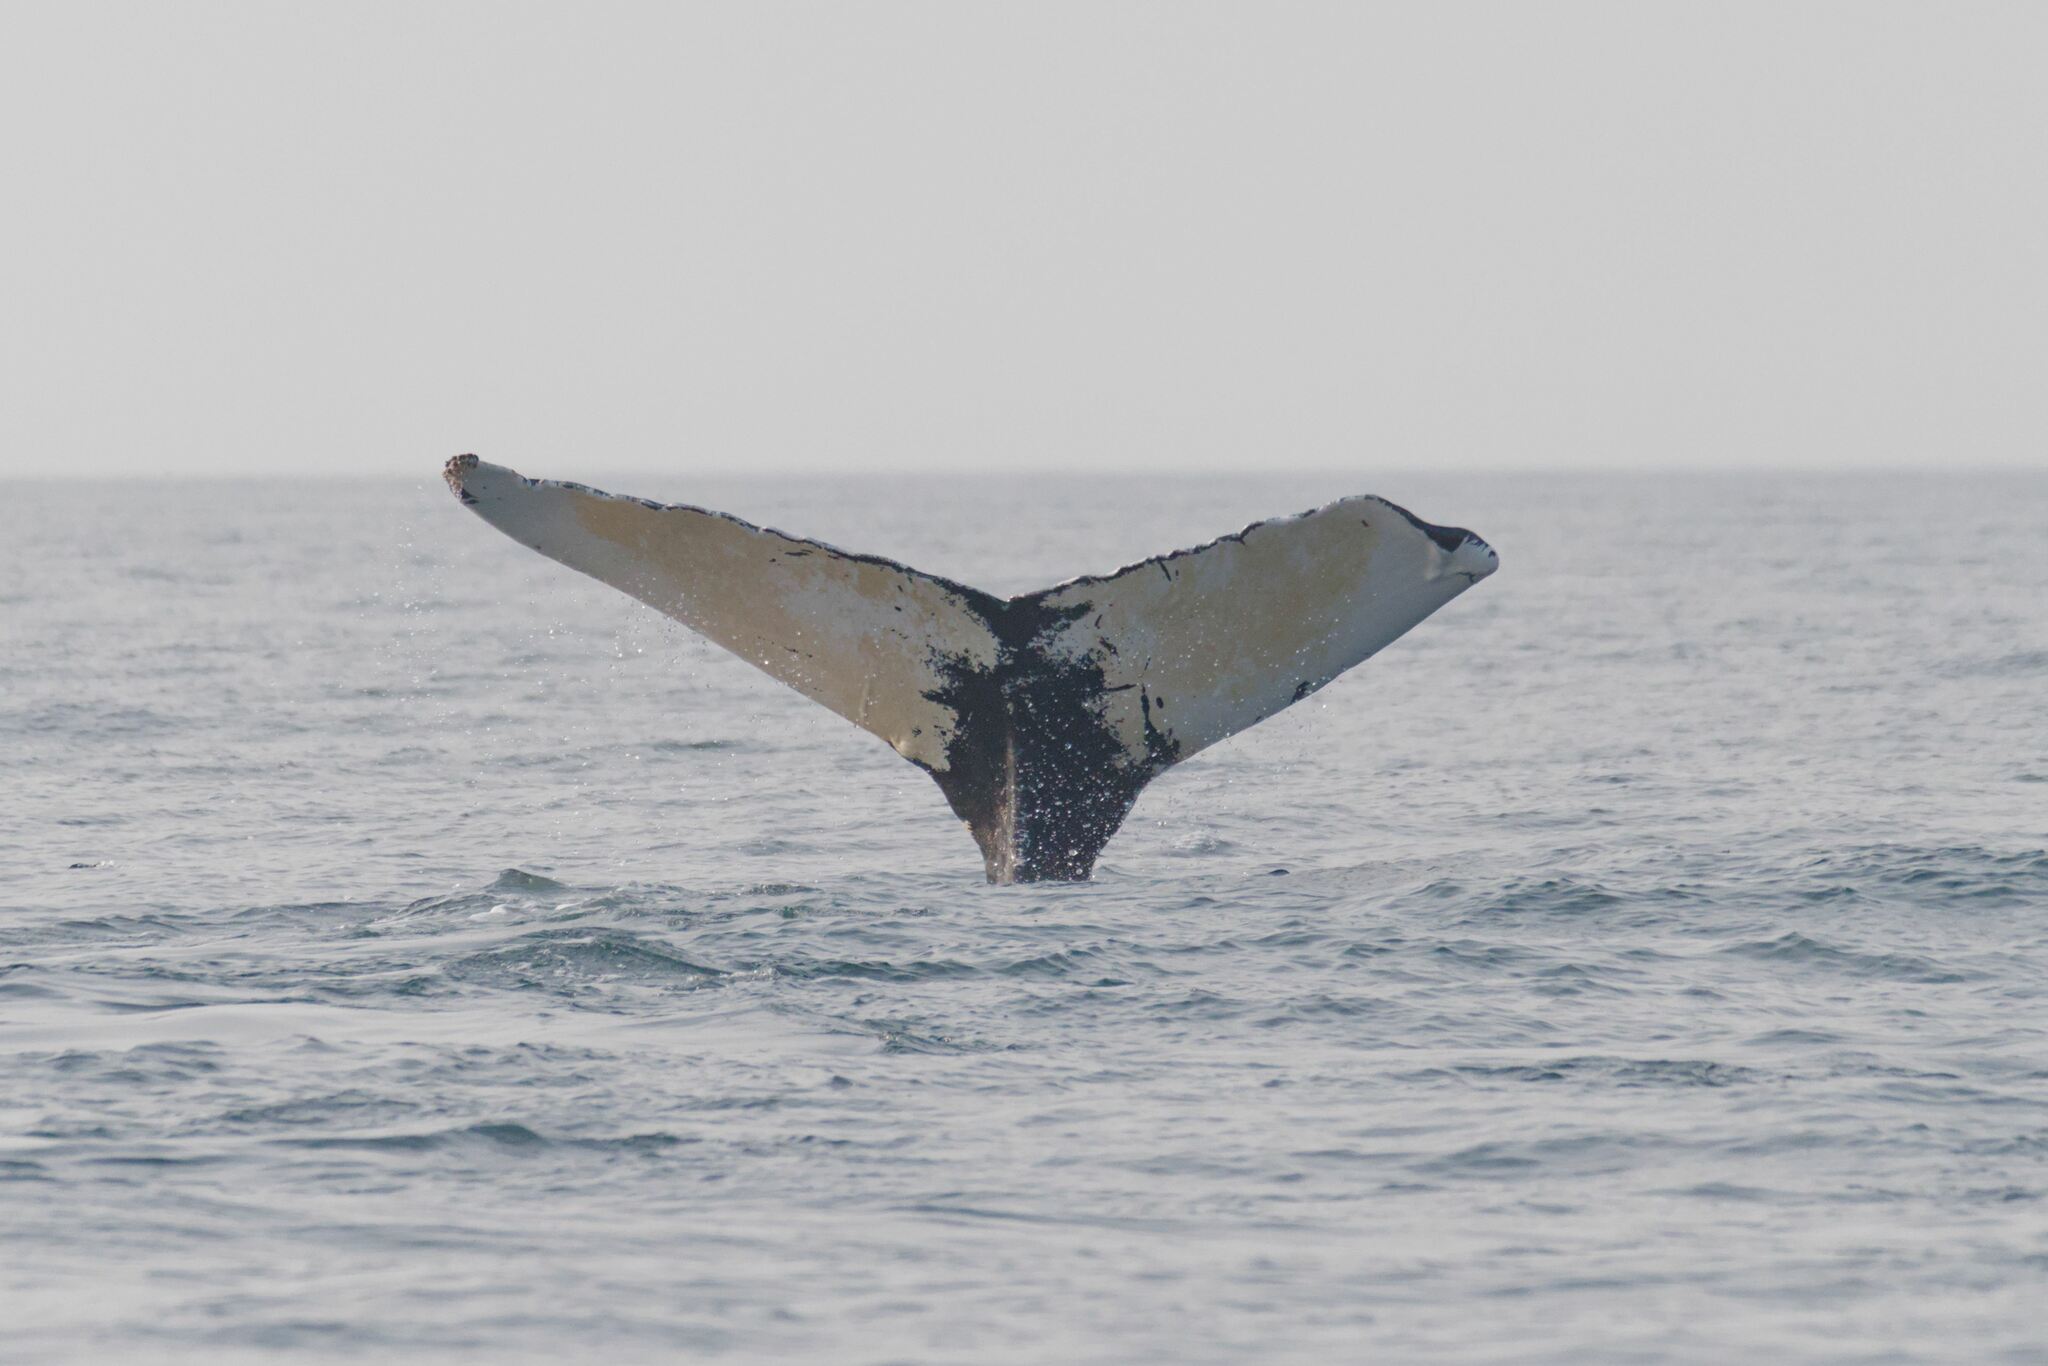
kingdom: Animalia
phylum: Chordata
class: Mammalia
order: Cetacea
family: Balaenopteridae
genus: Megaptera
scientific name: Megaptera novaeangliae
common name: Humpback whale
